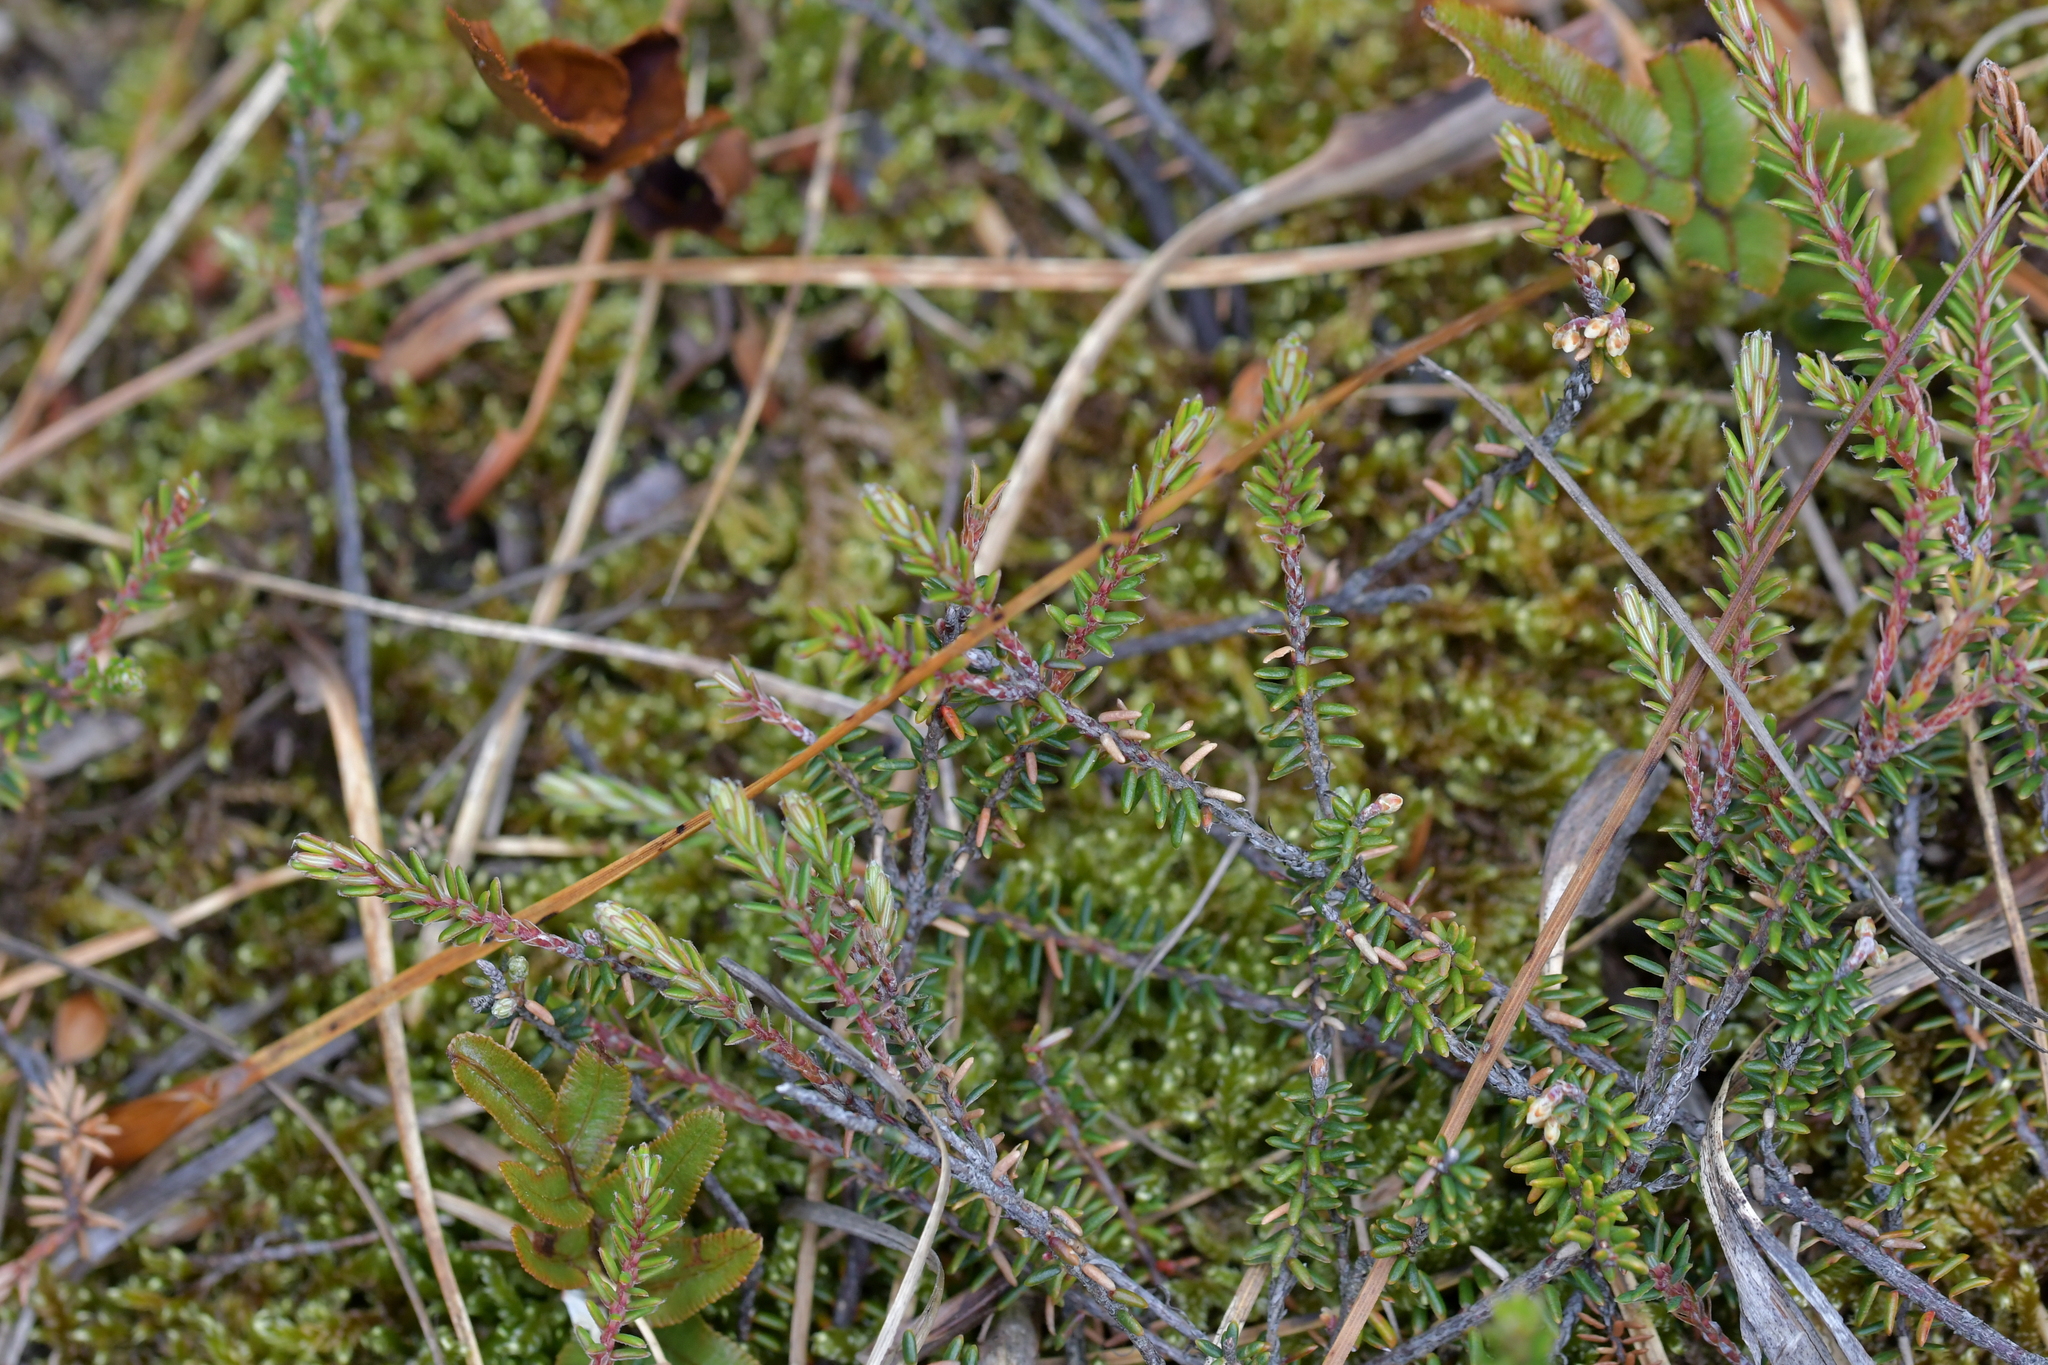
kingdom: Plantae
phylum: Tracheophyta
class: Magnoliopsida
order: Ericales
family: Ericaceae
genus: Androstoma
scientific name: Androstoma empetrifolia
